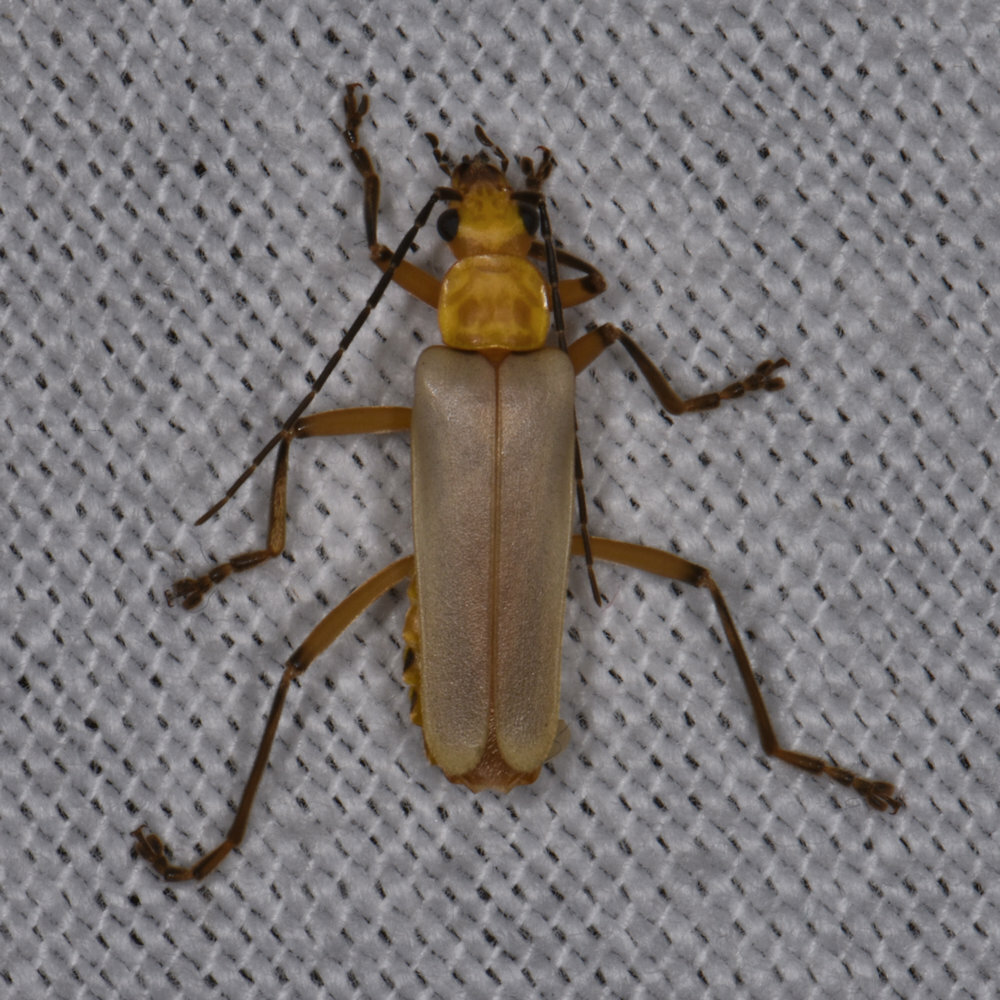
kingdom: Animalia
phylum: Arthropoda
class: Insecta
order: Coleoptera
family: Cantharidae
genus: Chauliognathus
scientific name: Chauliognathus
